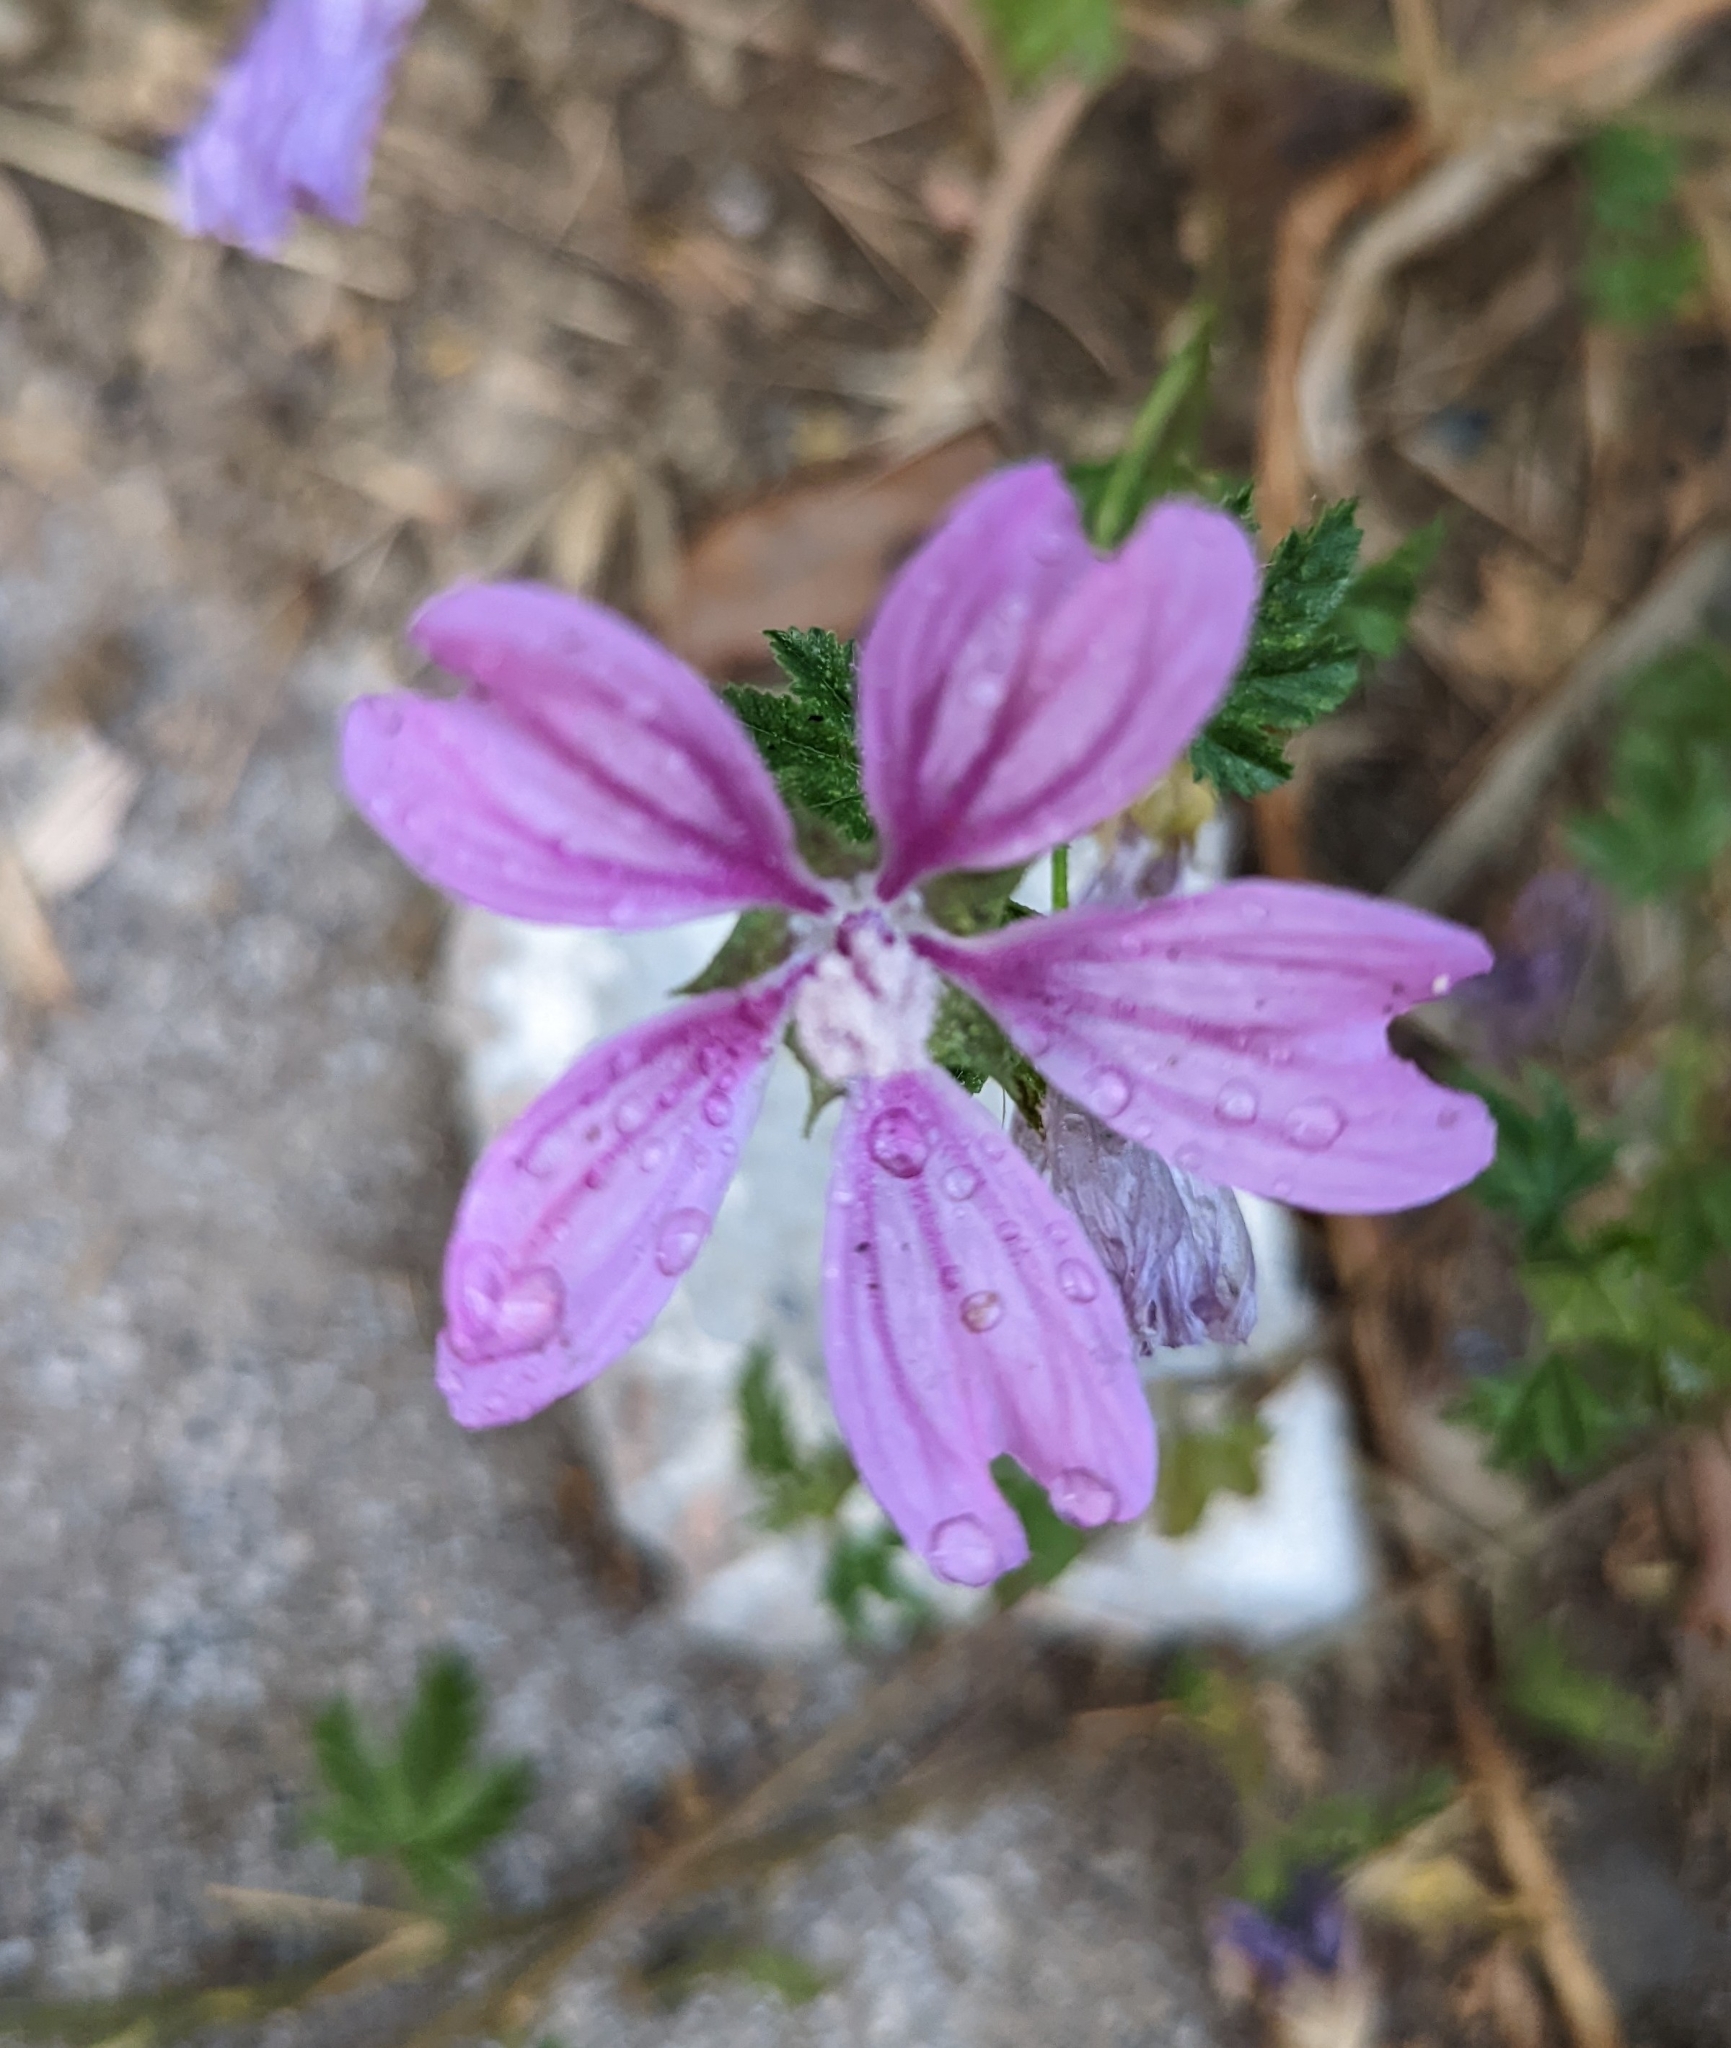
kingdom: Plantae
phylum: Tracheophyta
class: Magnoliopsida
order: Malvales
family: Malvaceae
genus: Malva
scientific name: Malva sylvestris
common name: Common mallow
